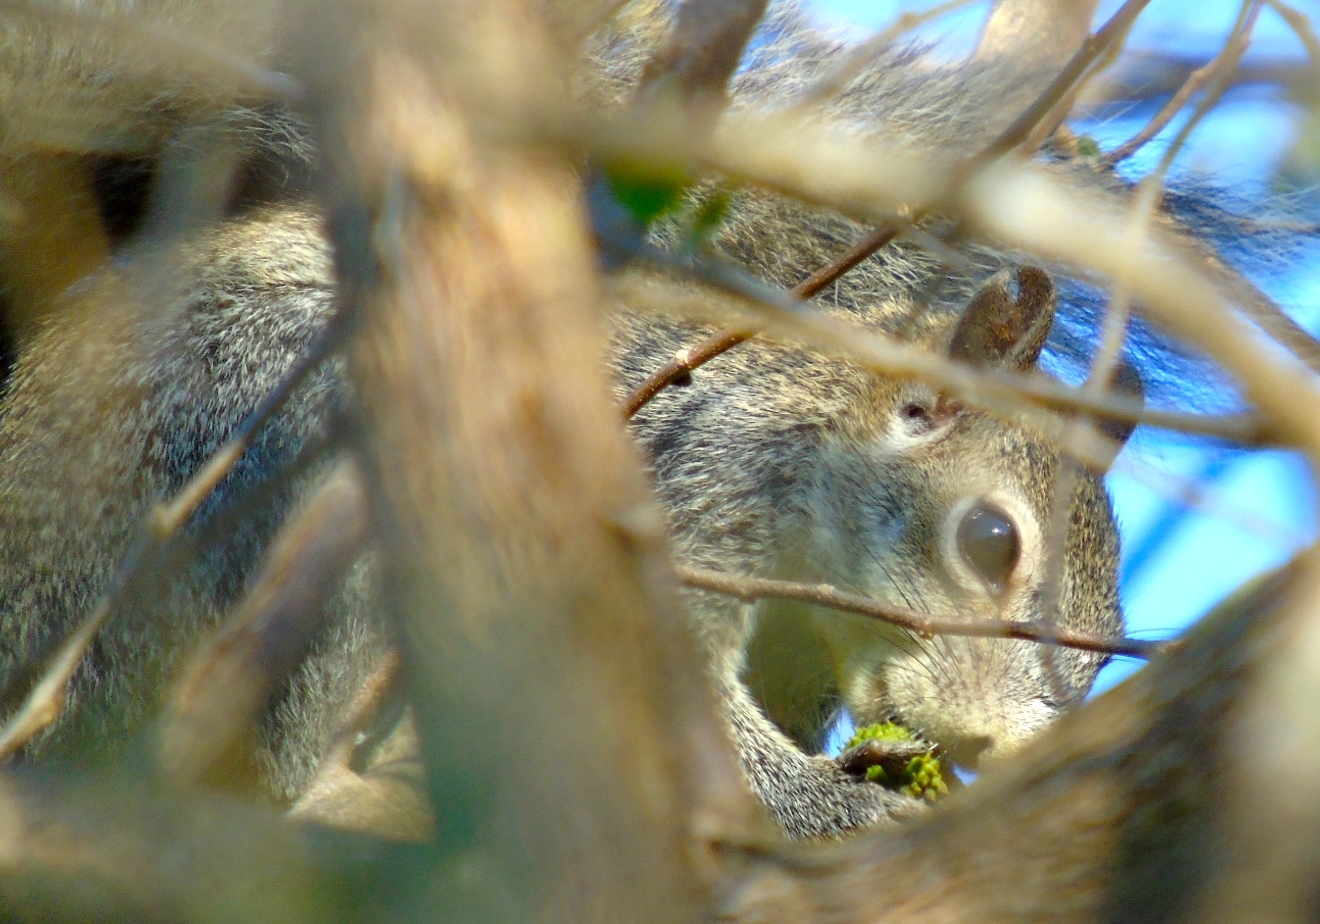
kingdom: Animalia
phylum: Chordata
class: Mammalia
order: Rodentia
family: Sciuridae
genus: Sciurus
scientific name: Sciurus colliaei
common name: Collie's squirrel
